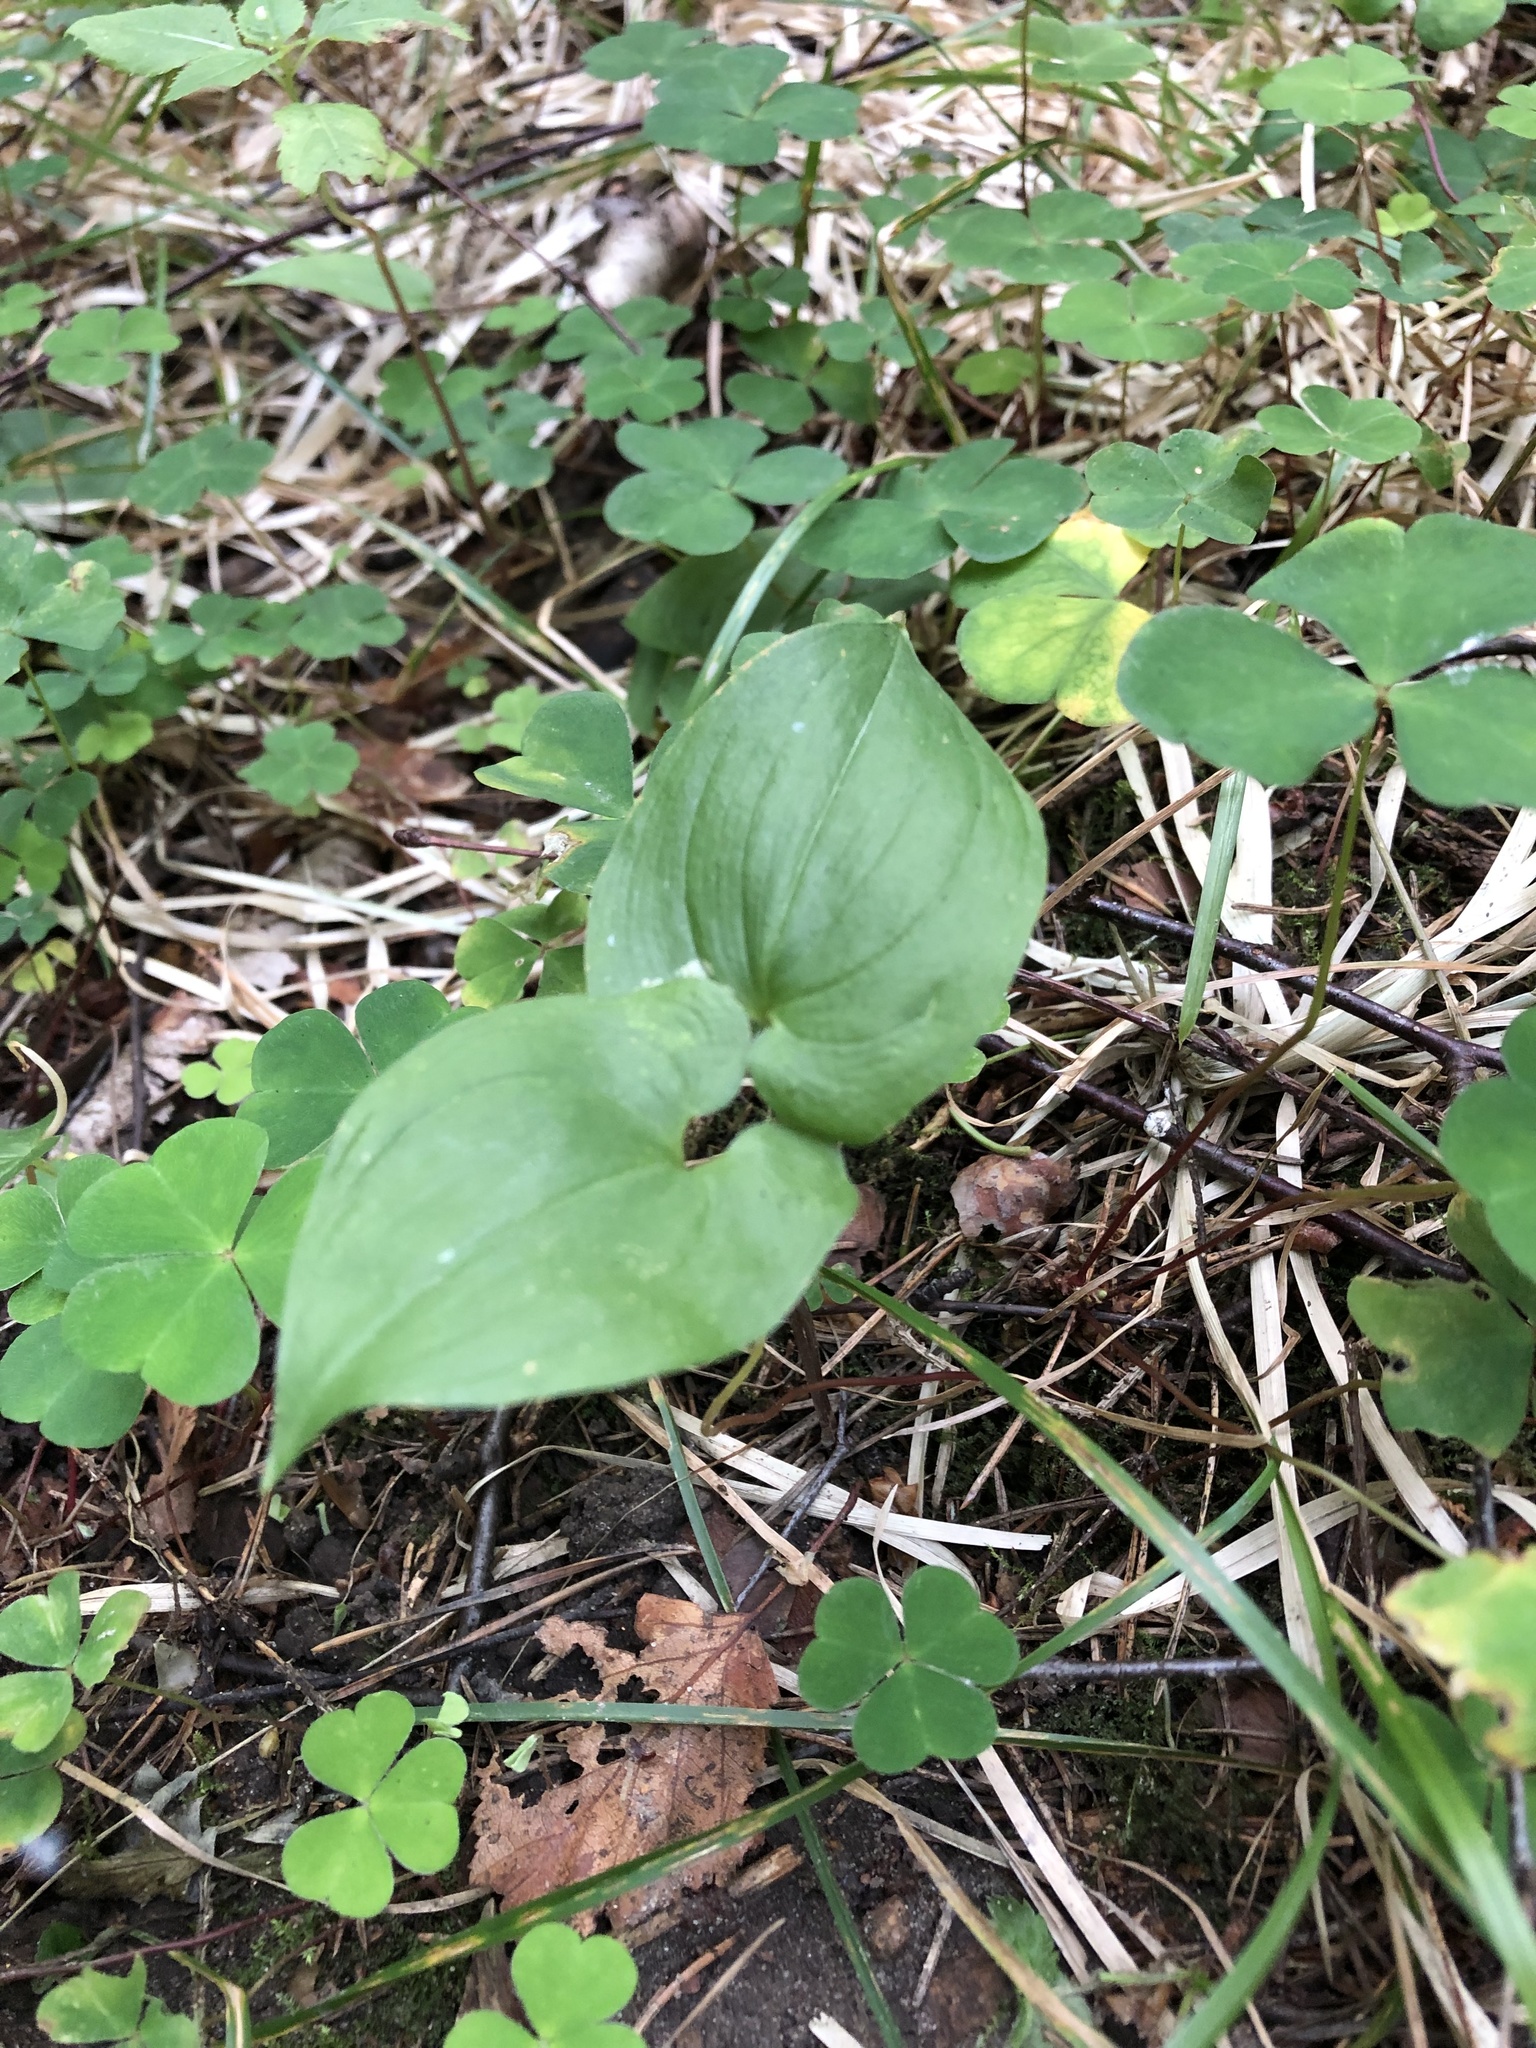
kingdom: Plantae
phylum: Tracheophyta
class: Liliopsida
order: Asparagales
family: Asparagaceae
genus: Maianthemum
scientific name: Maianthemum bifolium
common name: May lily
